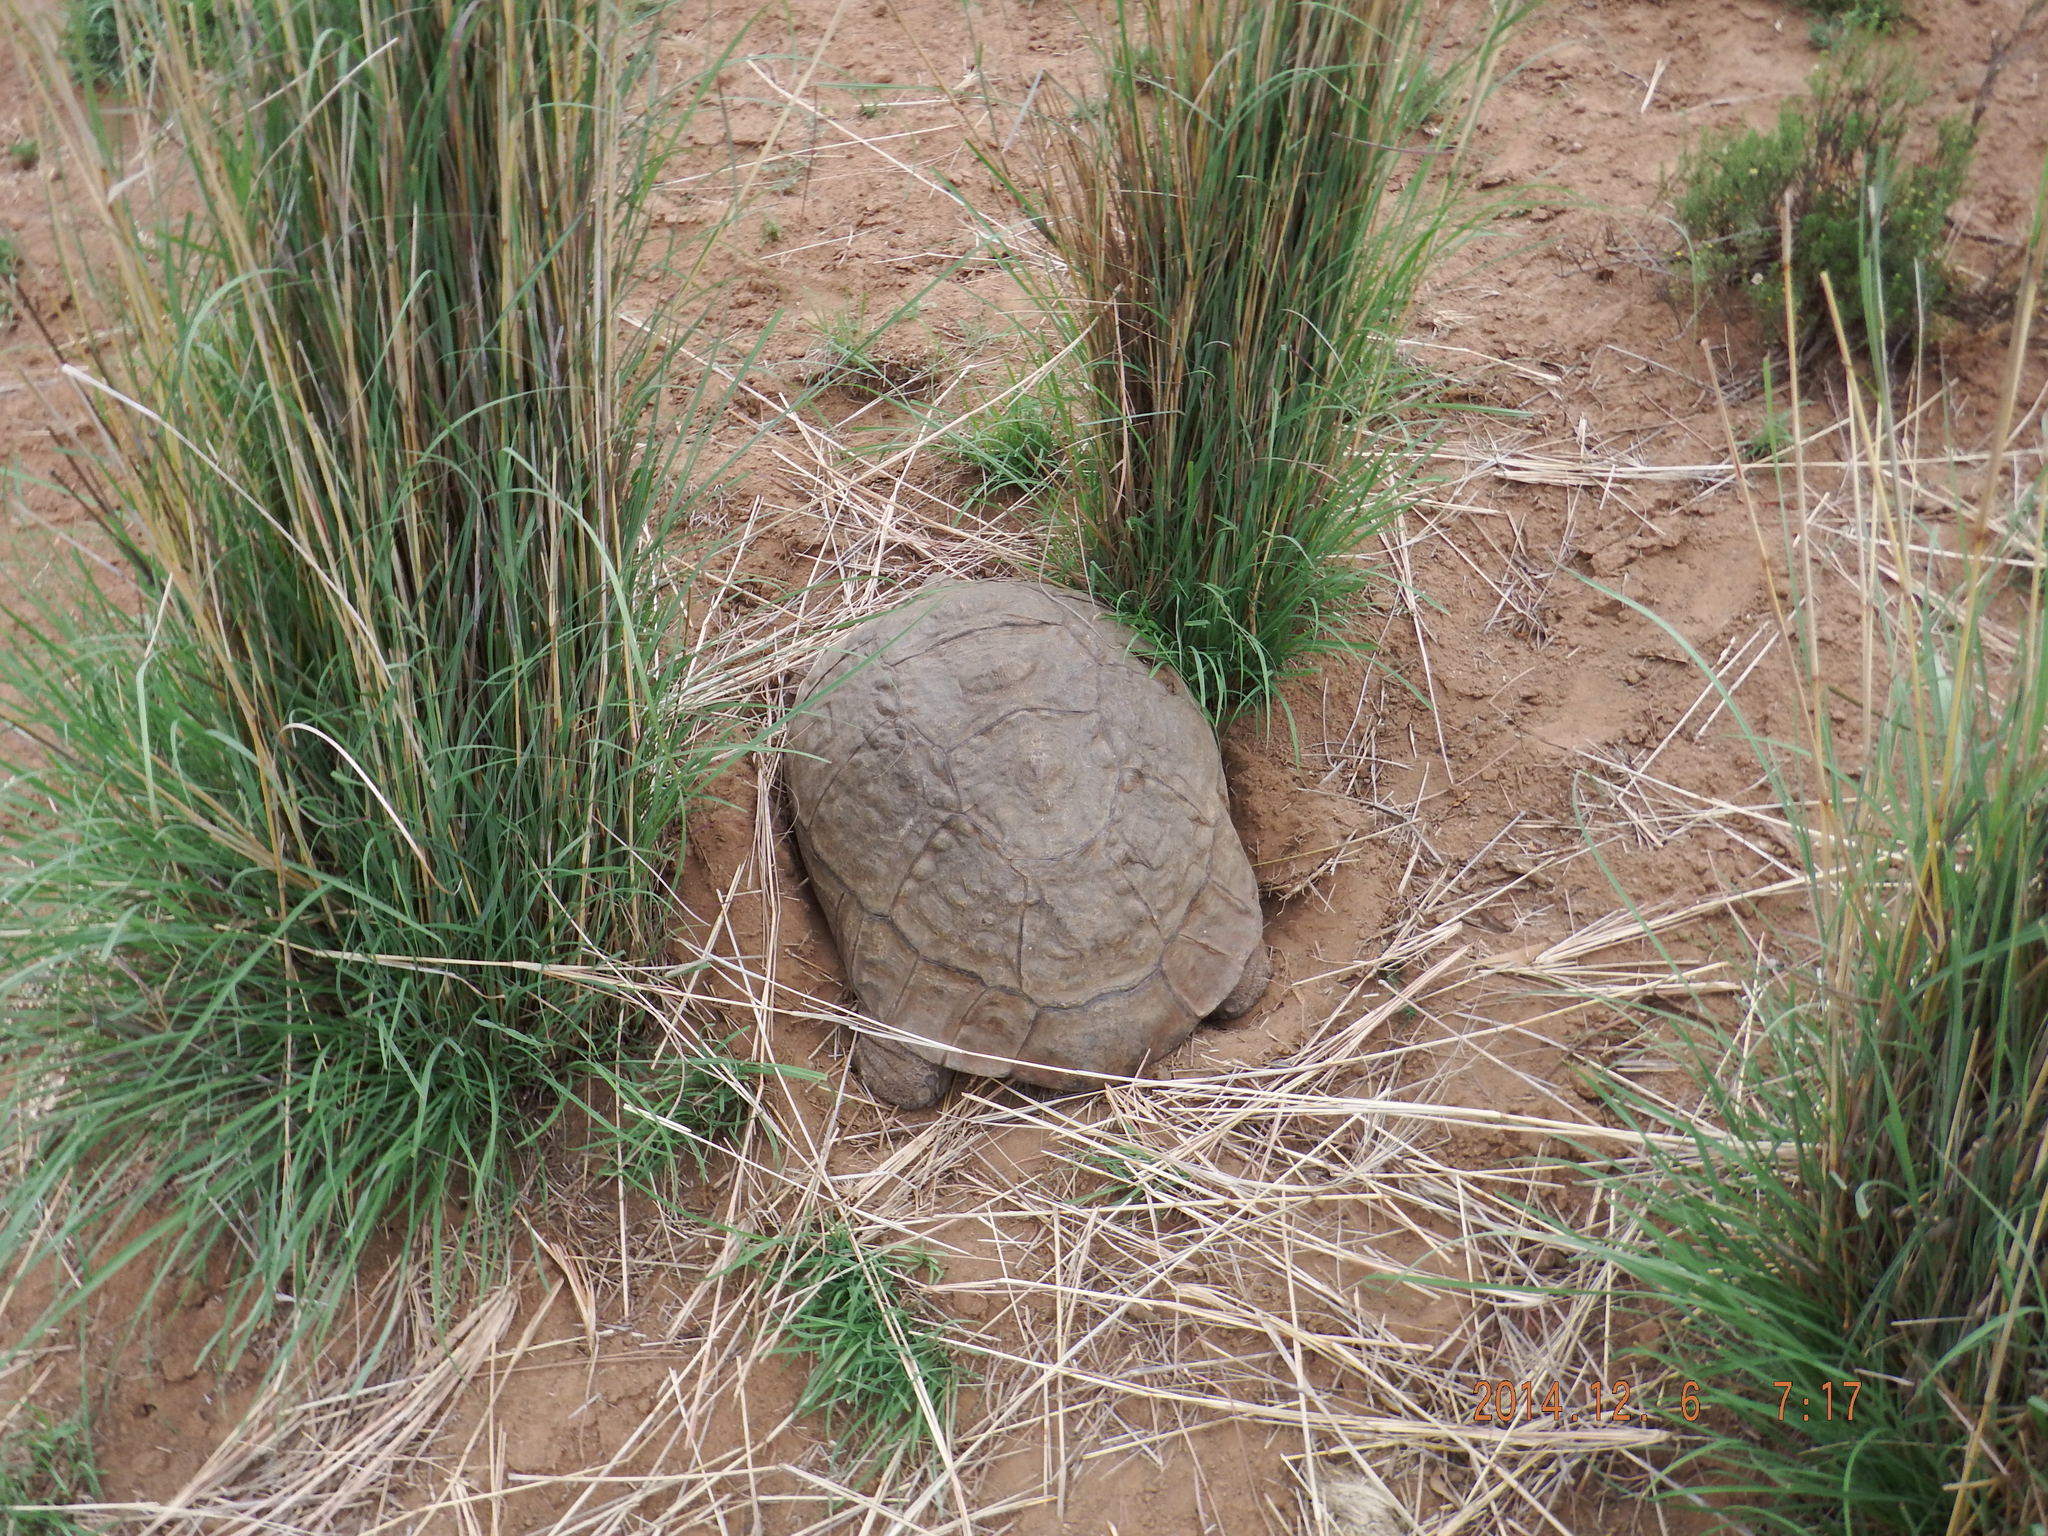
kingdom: Animalia
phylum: Chordata
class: Testudines
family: Testudinidae
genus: Stigmochelys
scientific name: Stigmochelys pardalis
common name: Leopard tortoise
